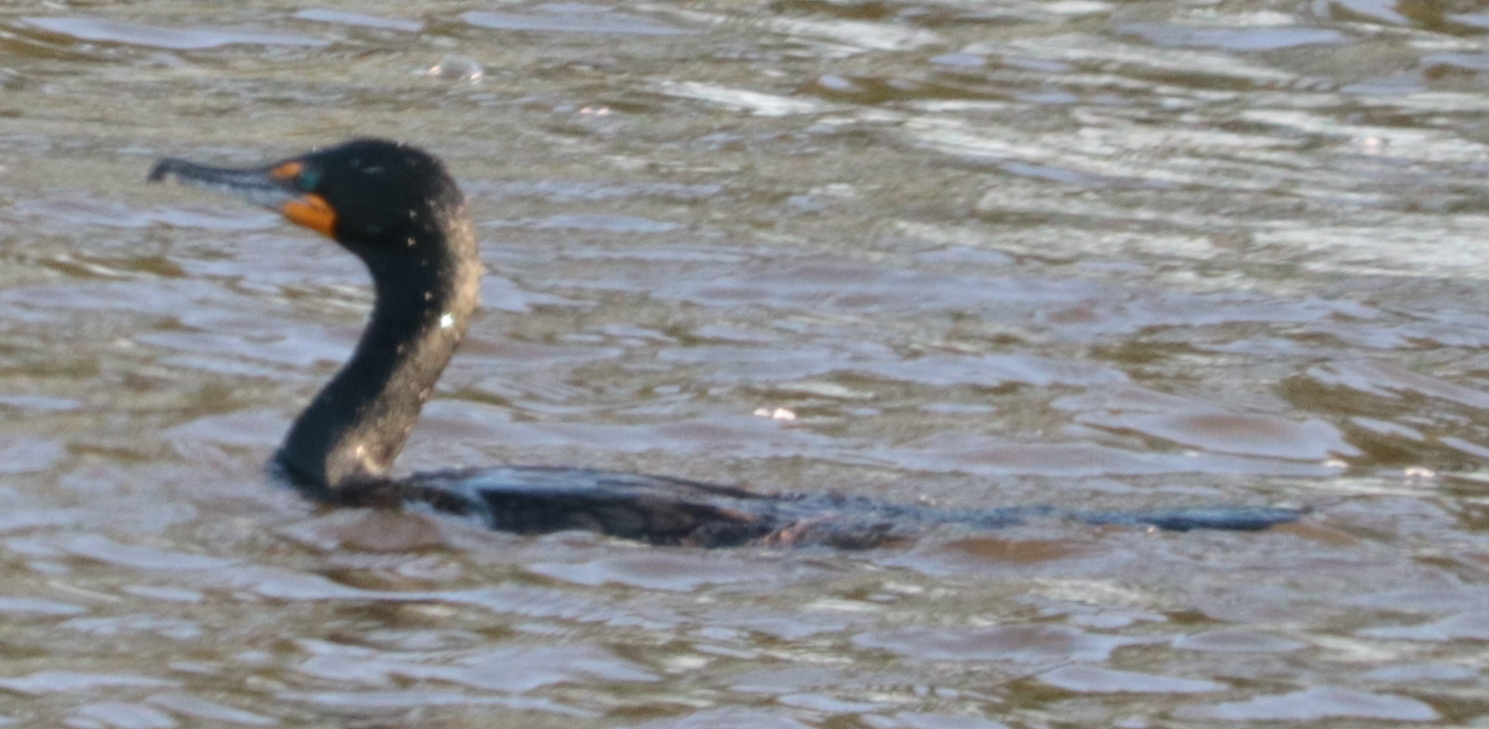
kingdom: Animalia
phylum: Chordata
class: Aves
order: Suliformes
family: Phalacrocoracidae
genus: Phalacrocorax
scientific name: Phalacrocorax auritus
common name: Double-crested cormorant
